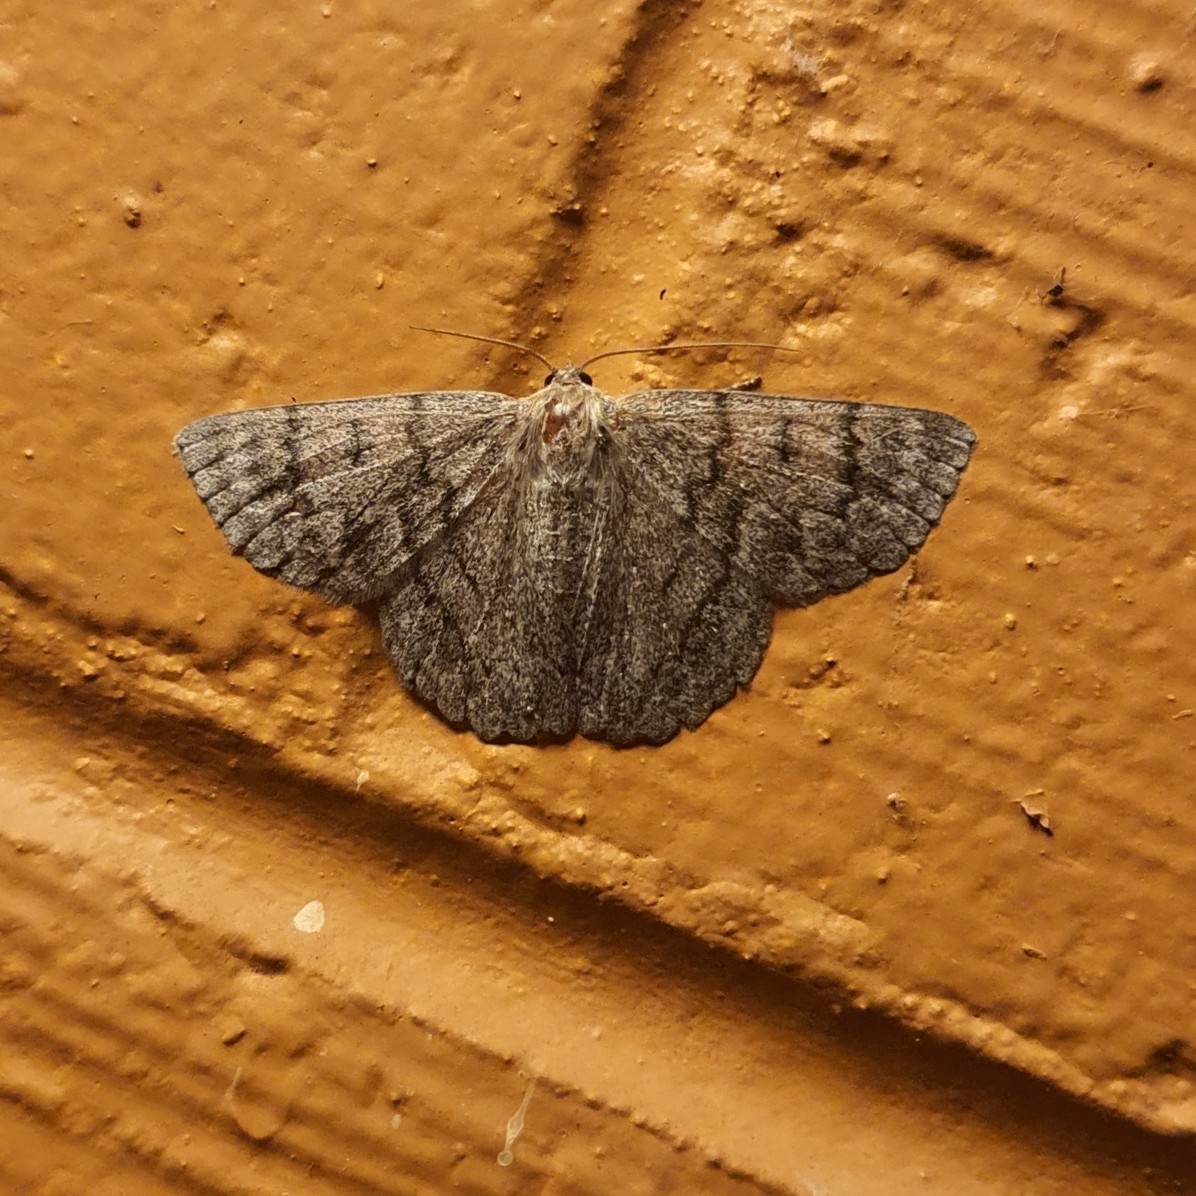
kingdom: Animalia
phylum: Arthropoda
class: Insecta
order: Lepidoptera
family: Geometridae
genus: Crypsiphona
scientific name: Crypsiphona ocultaria
